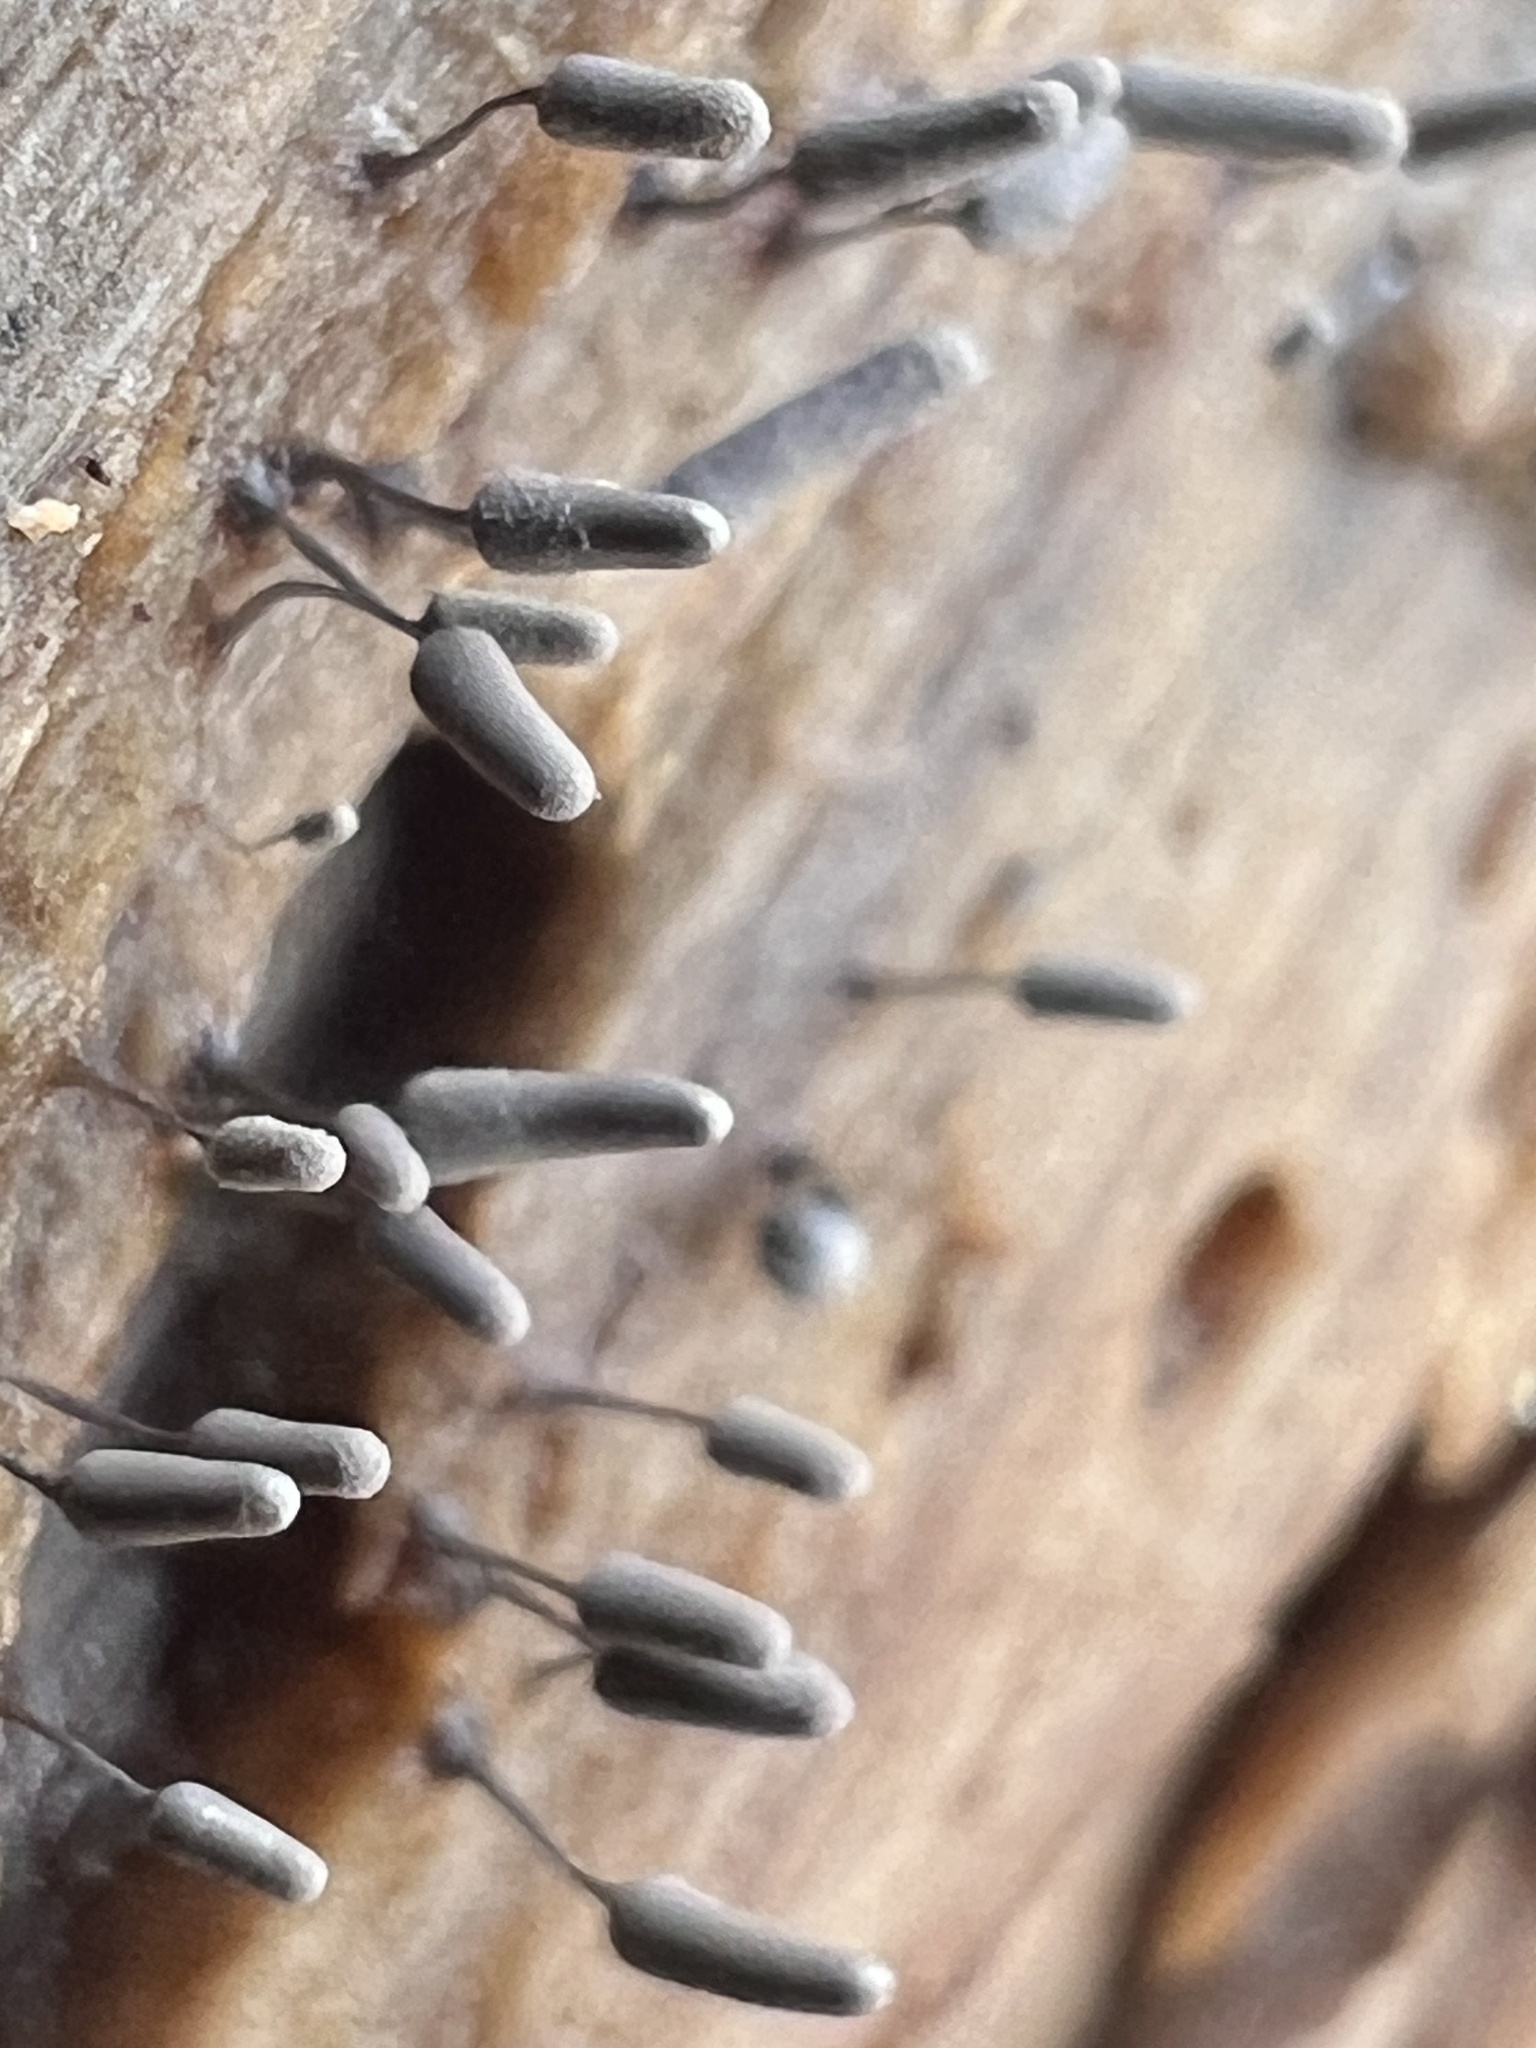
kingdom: Protozoa
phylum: Mycetozoa
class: Myxomycetes
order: Trichiales
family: Arcyriaceae
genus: Arcyria
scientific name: Arcyria cinerea
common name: White carnival candy slime mold
